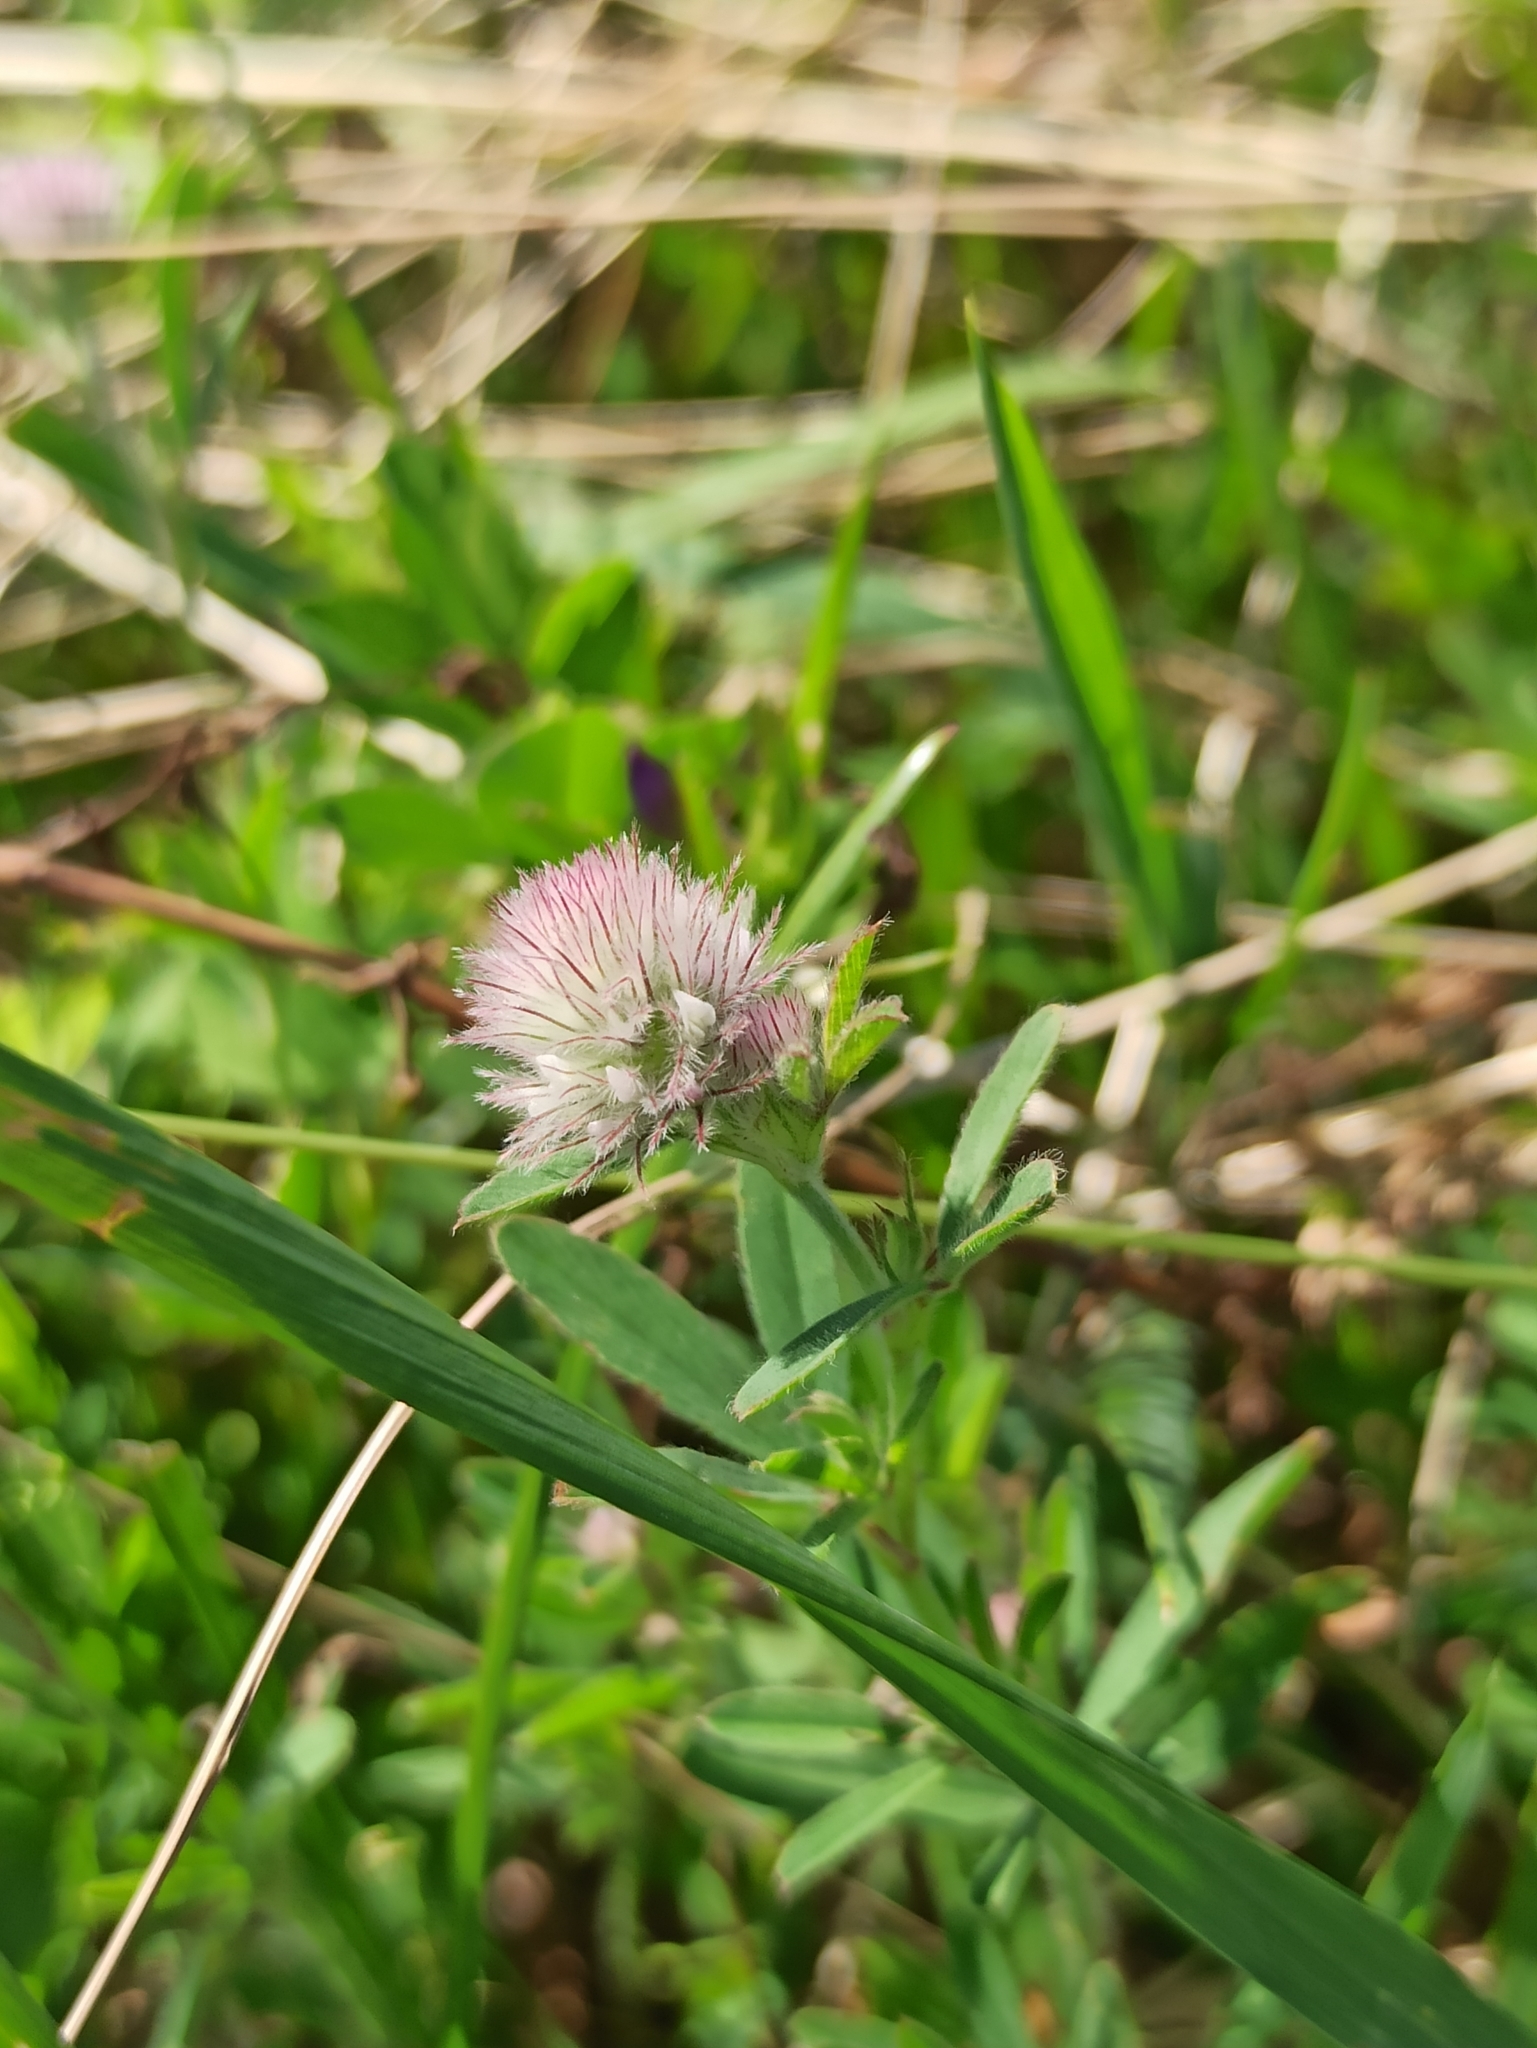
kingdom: Plantae
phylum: Tracheophyta
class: Magnoliopsida
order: Fabales
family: Fabaceae
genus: Trifolium
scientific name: Trifolium arvense
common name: Hare's-foot clover
